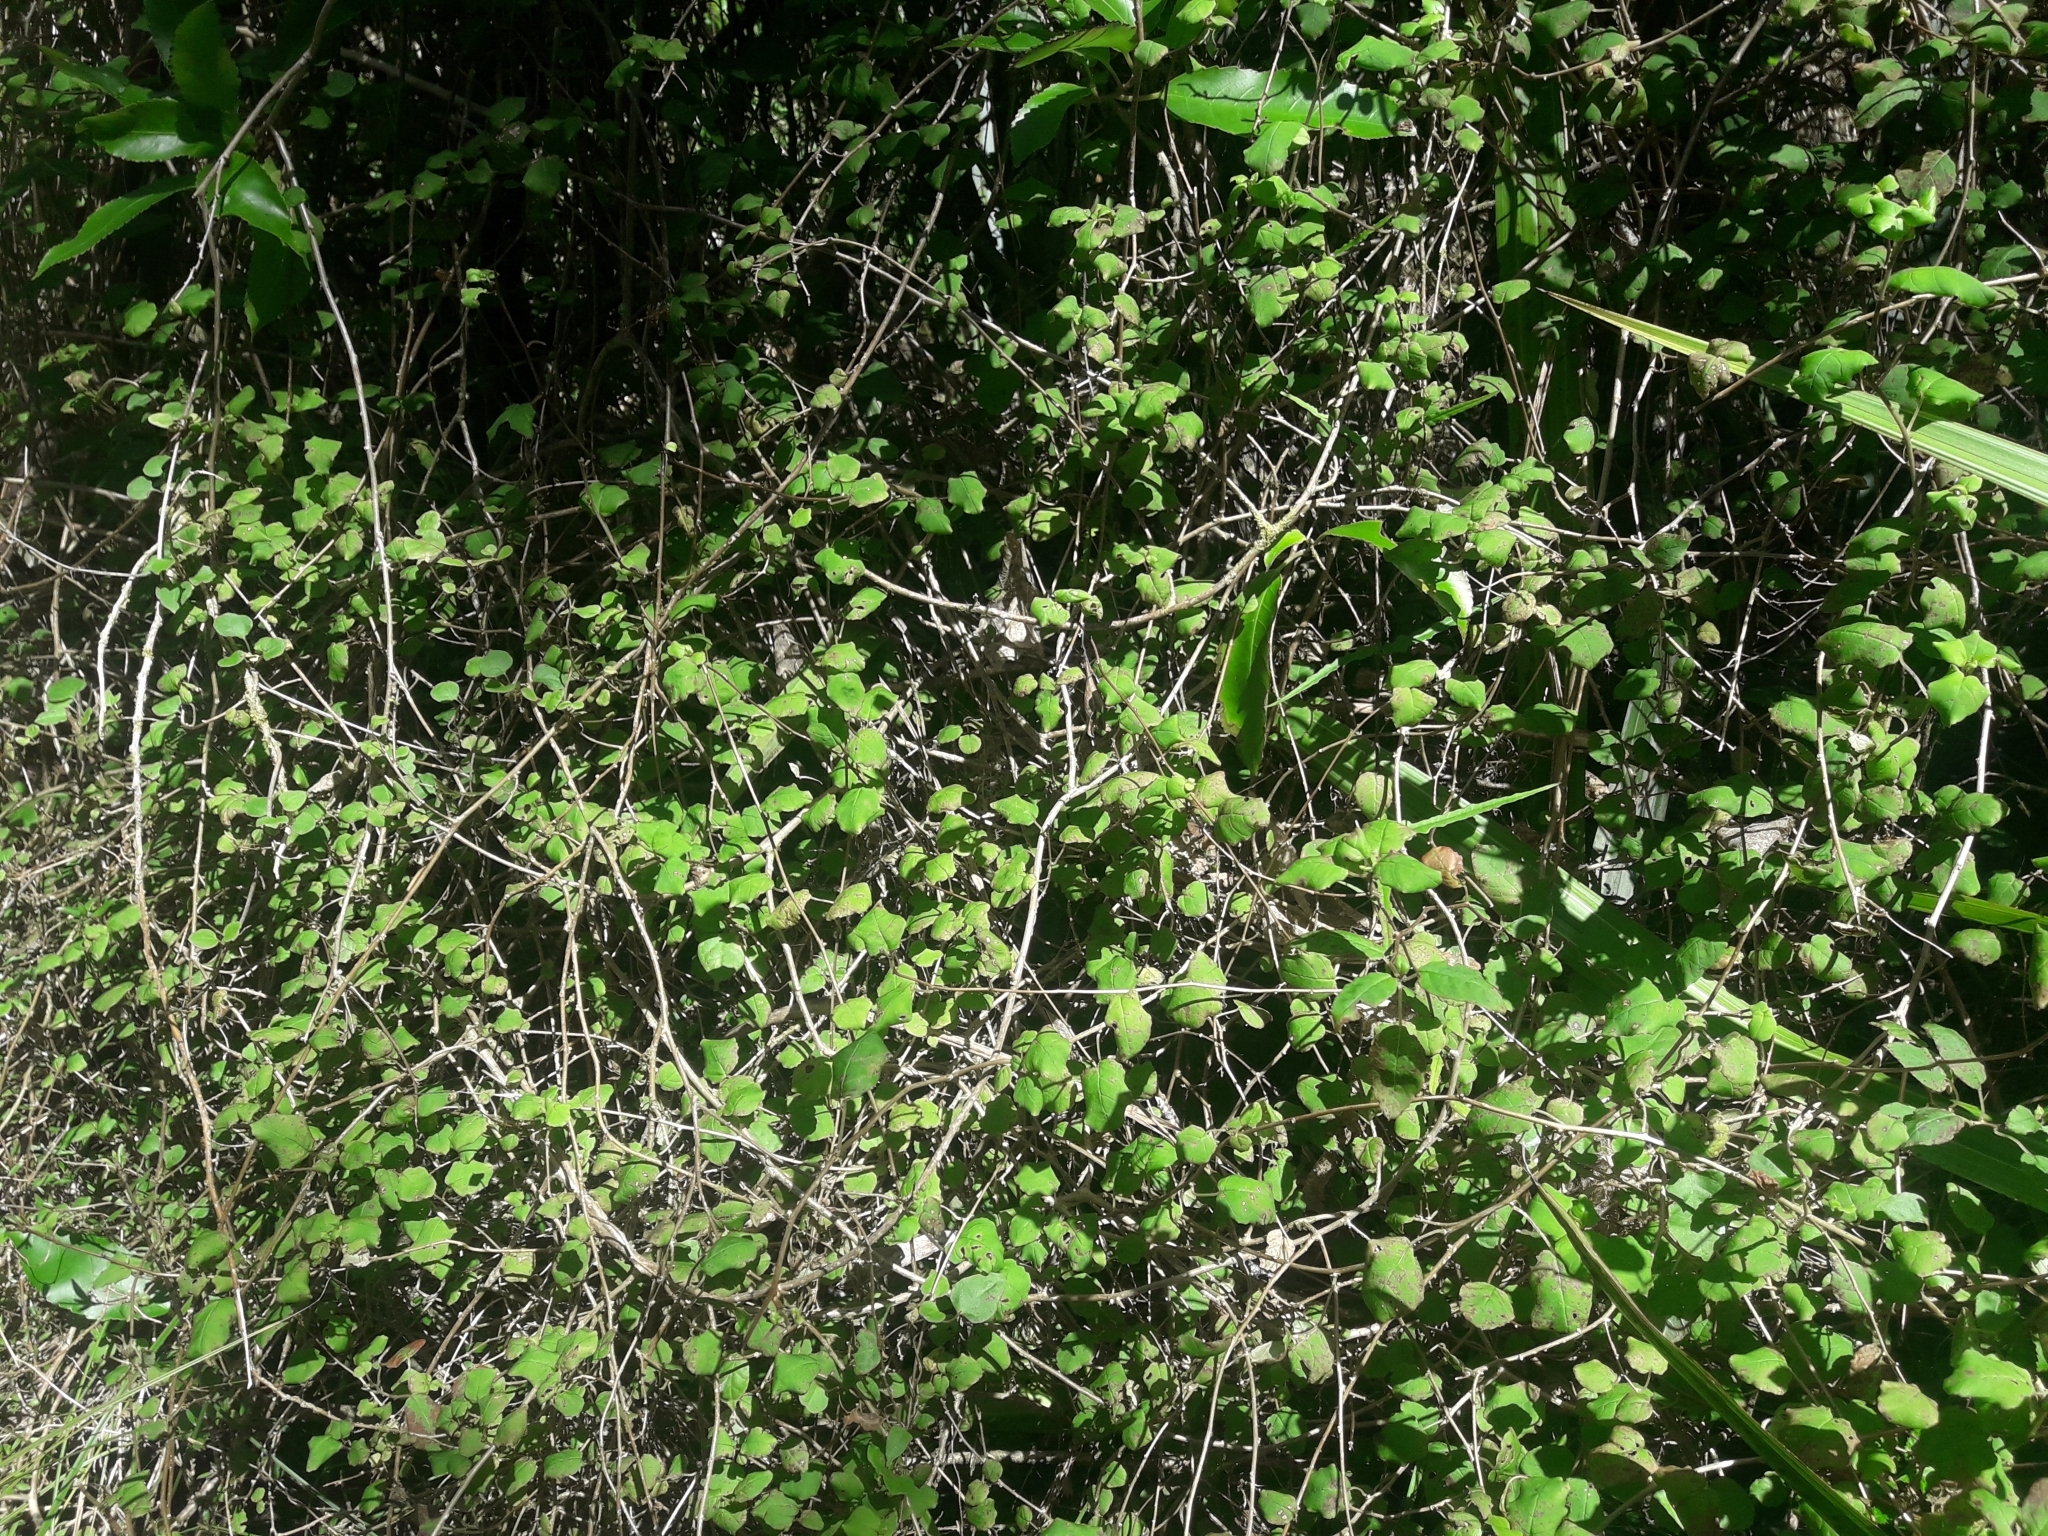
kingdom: Plantae
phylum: Tracheophyta
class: Magnoliopsida
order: Myrtales
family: Onagraceae
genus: Fuchsia
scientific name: Fuchsia perscandens
